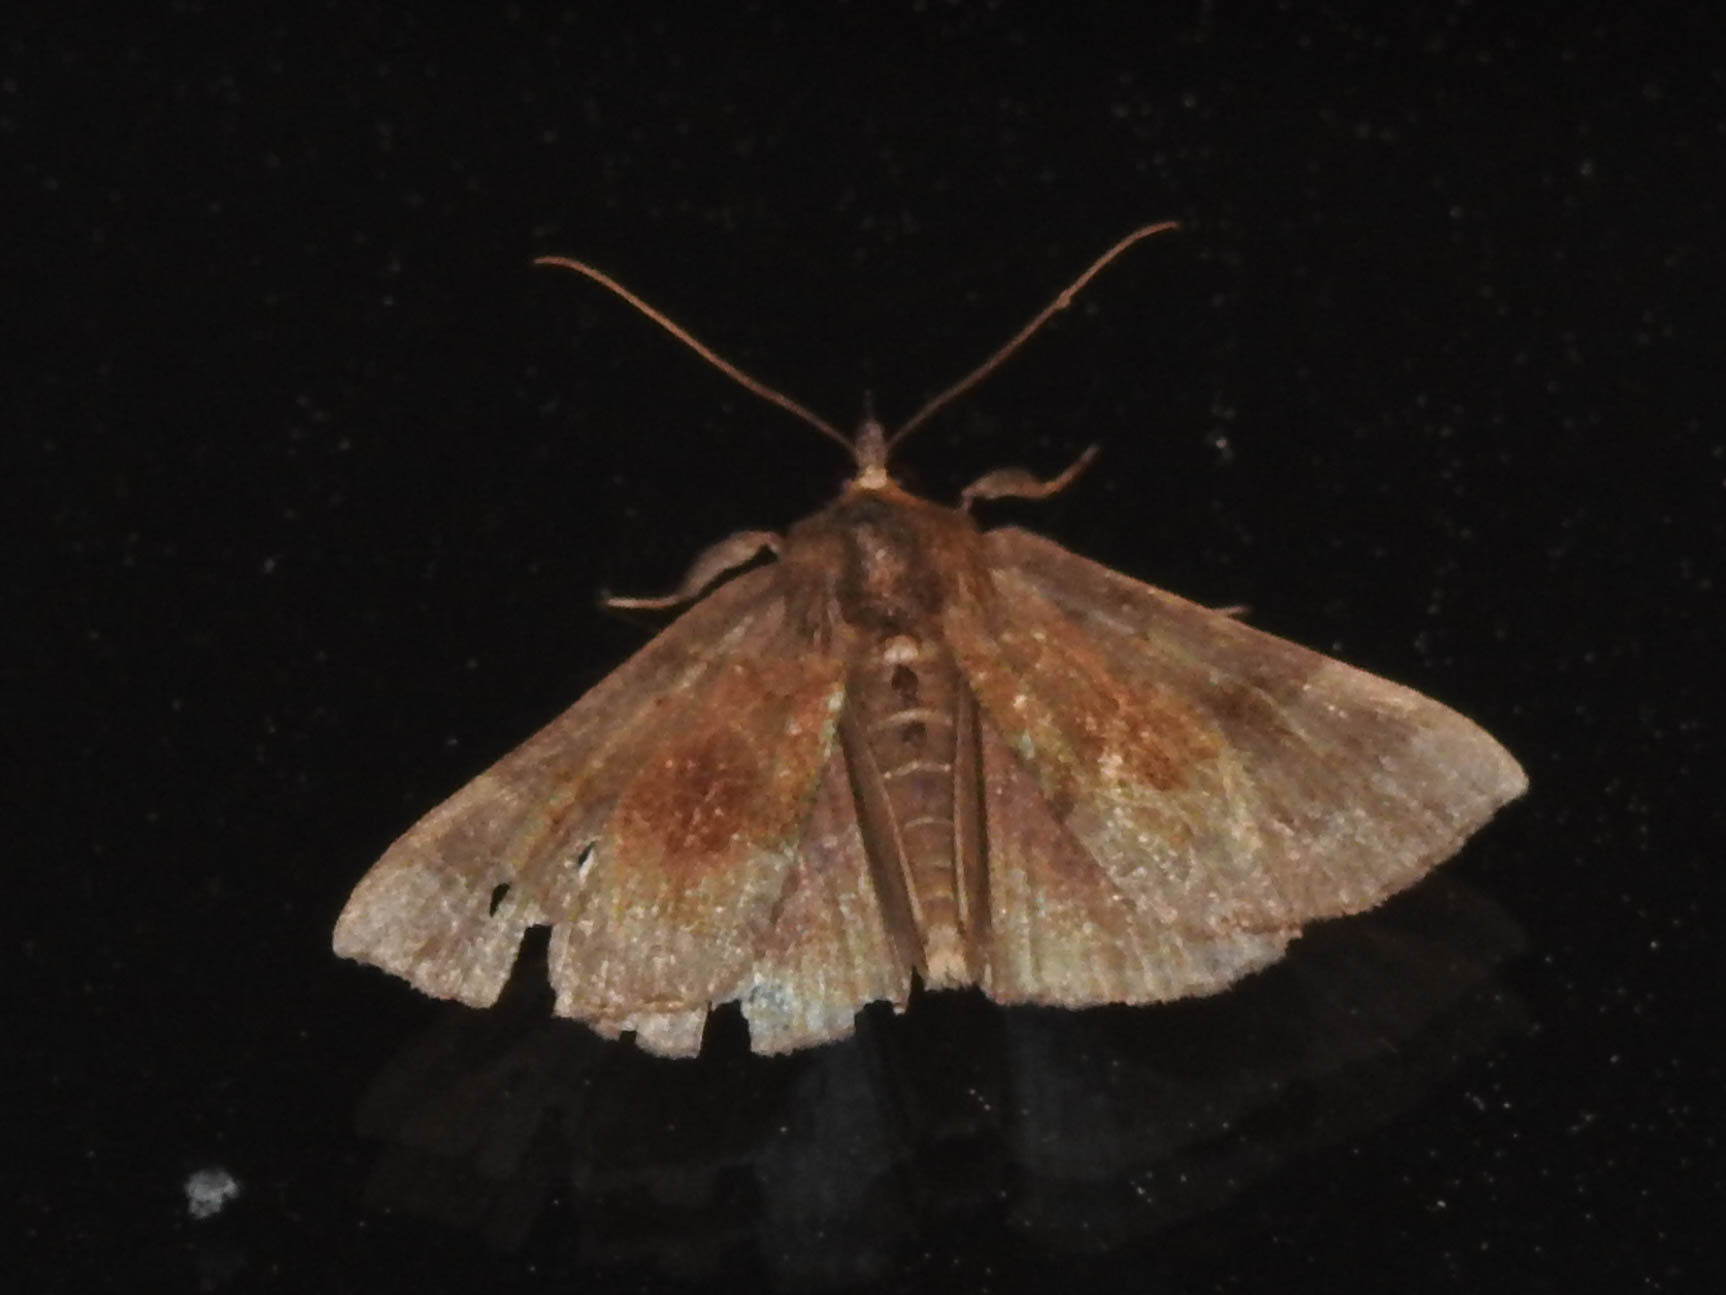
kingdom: Animalia
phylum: Arthropoda
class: Insecta
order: Lepidoptera
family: Erebidae
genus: Hypena
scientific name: Hypena madefactalis
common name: Gray-edged snout
